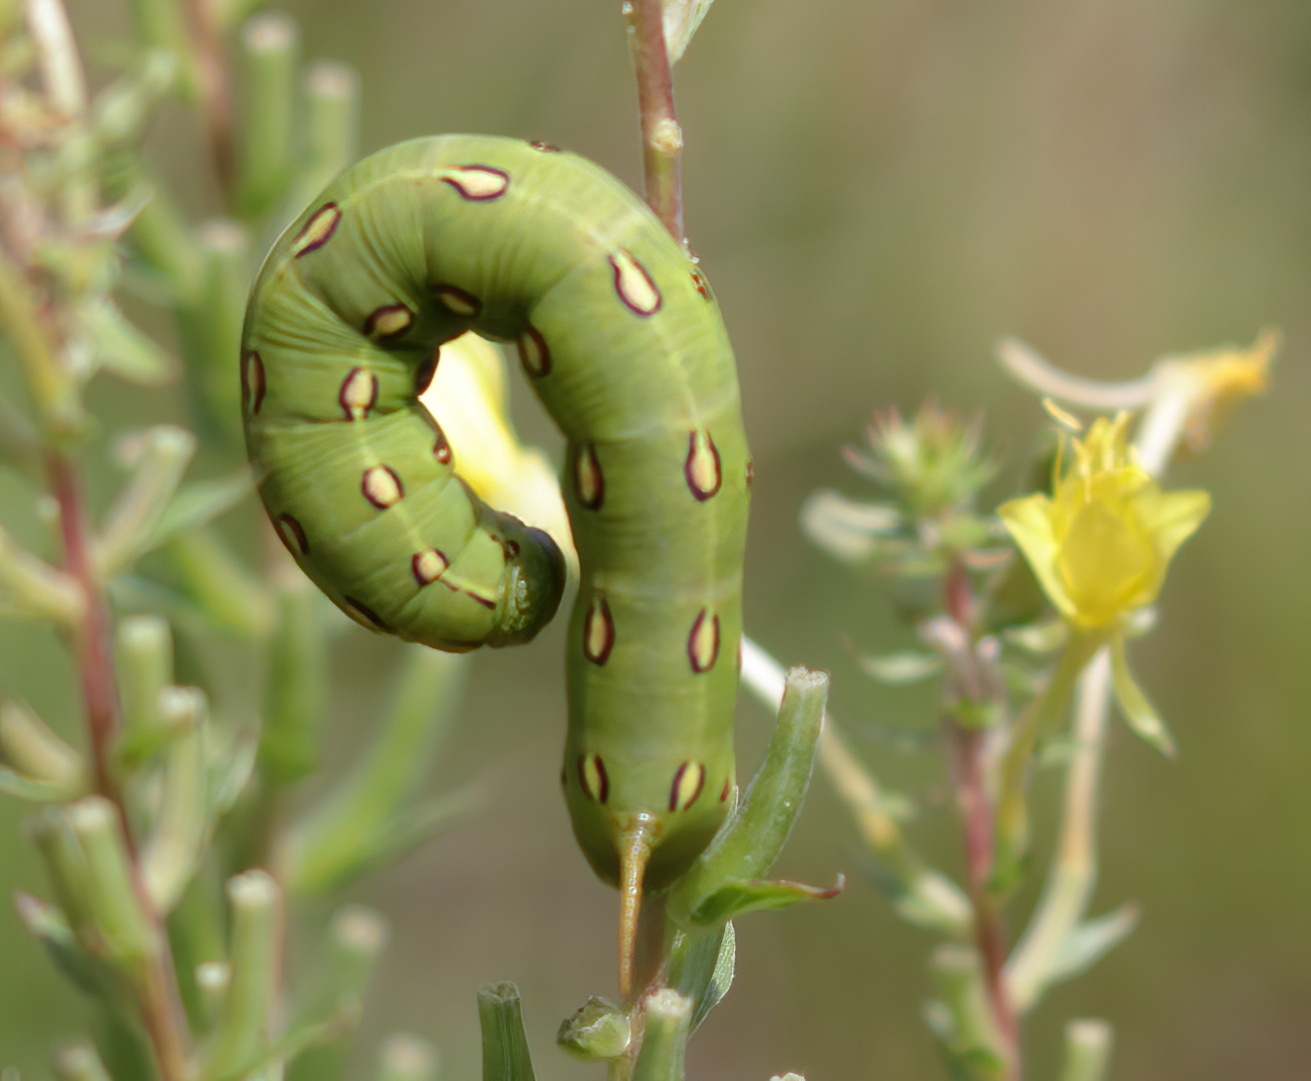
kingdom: Animalia
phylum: Arthropoda
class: Insecta
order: Lepidoptera
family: Sphingidae
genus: Hyles
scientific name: Hyles lineata
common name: White-lined sphinx
